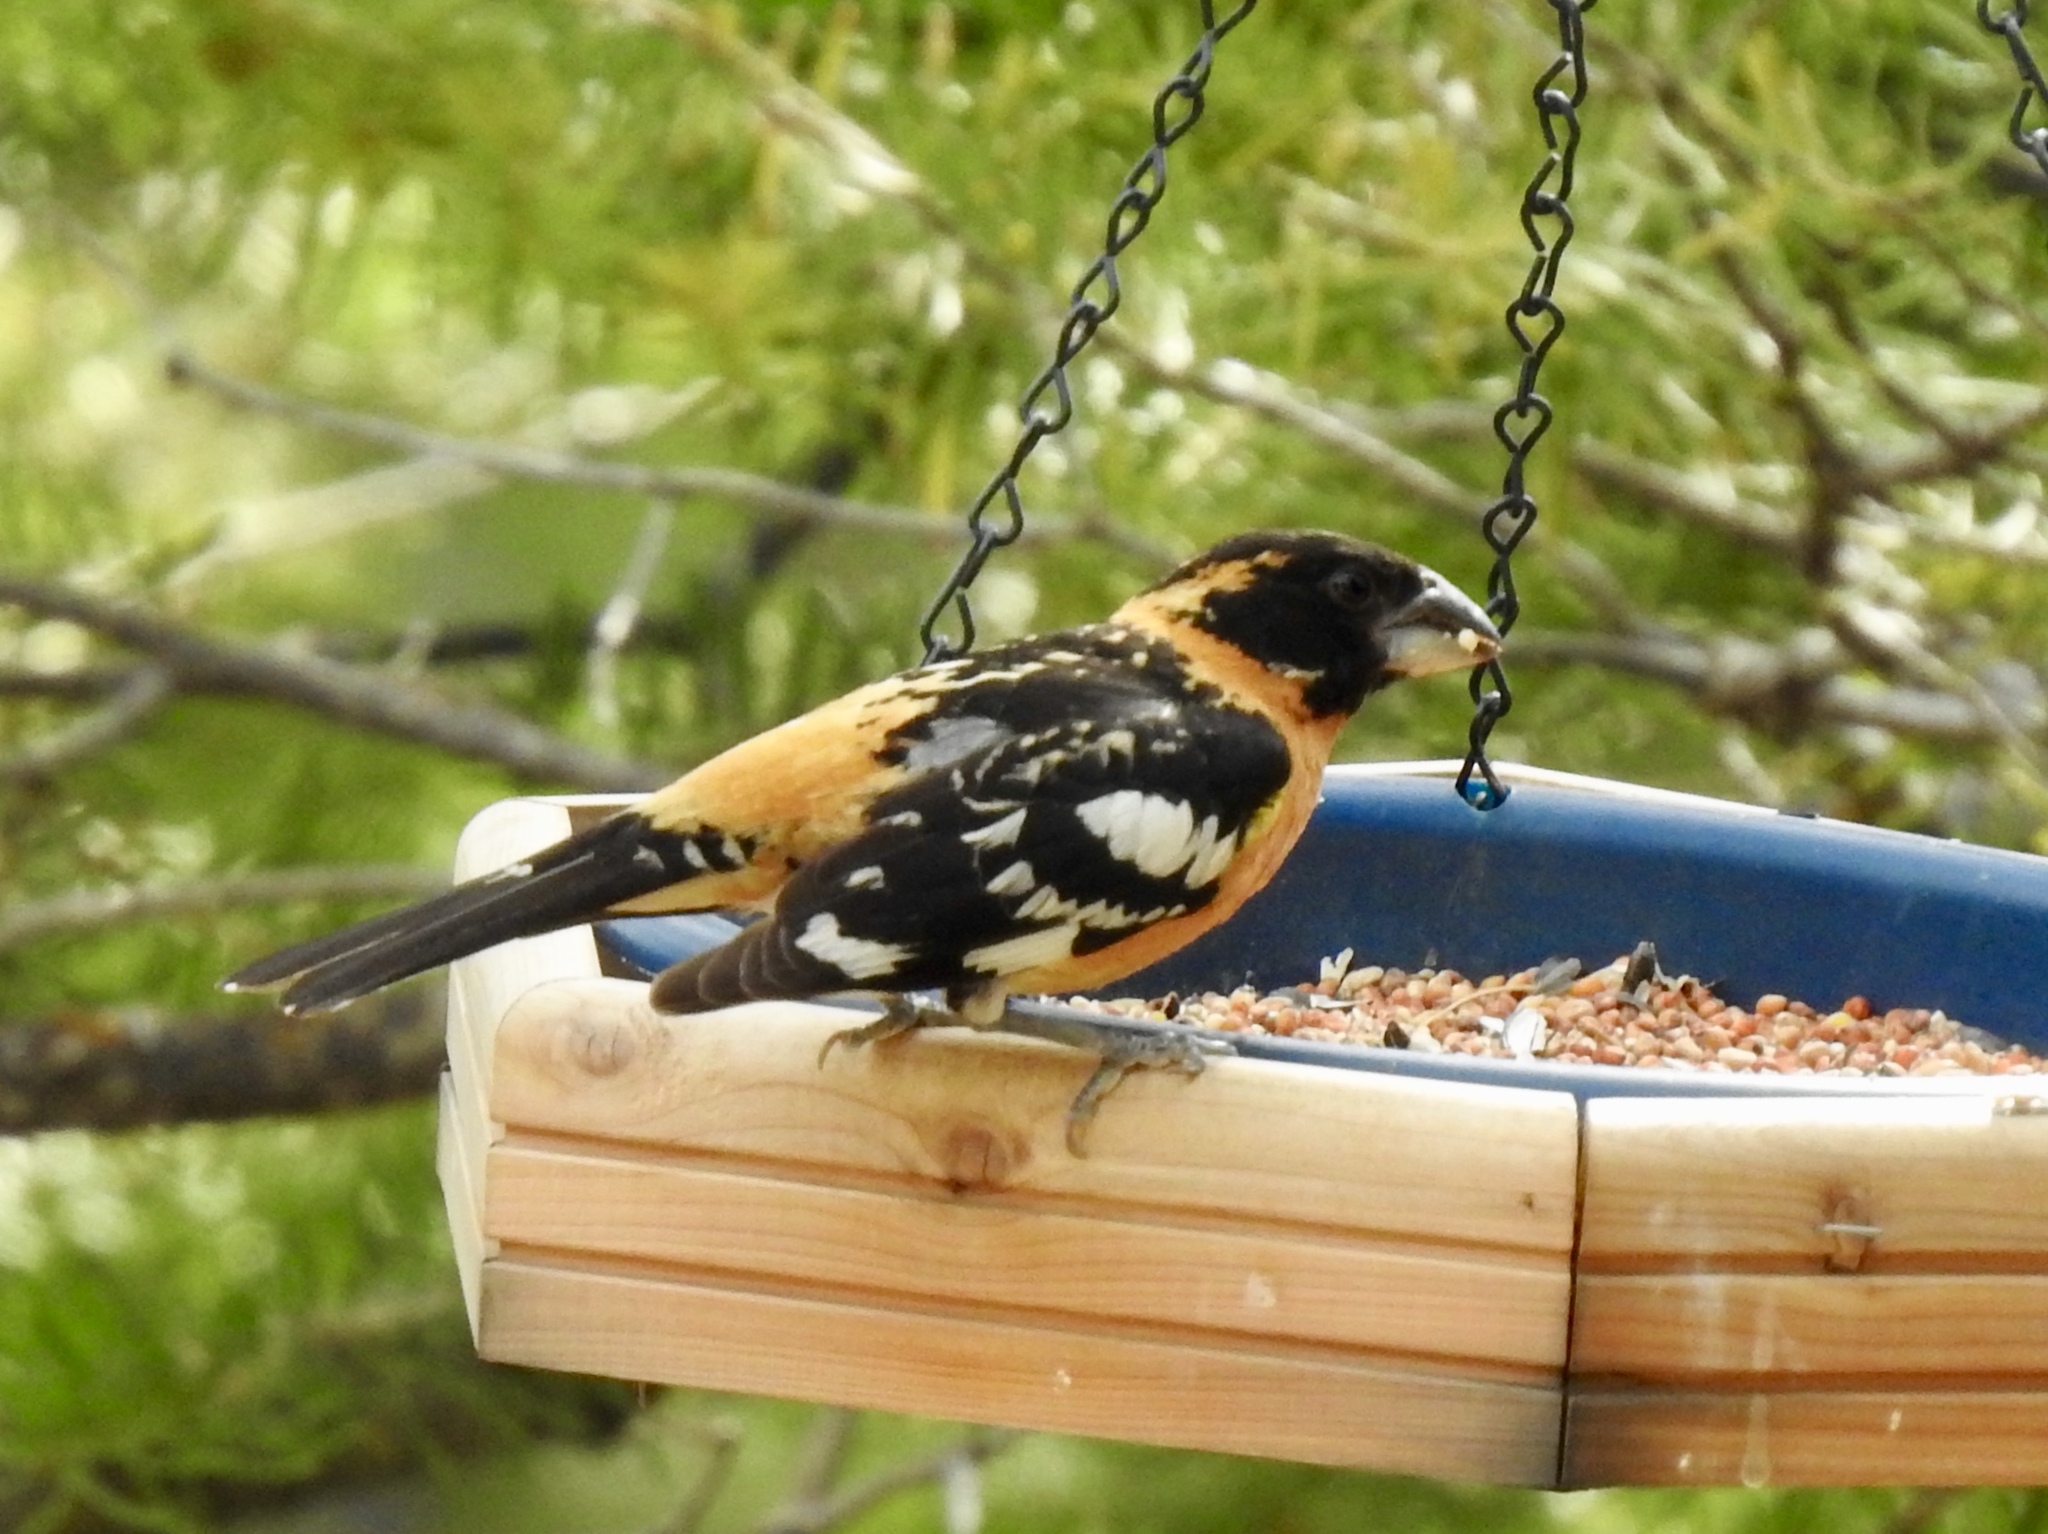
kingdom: Animalia
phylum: Chordata
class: Aves
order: Passeriformes
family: Cardinalidae
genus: Pheucticus
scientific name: Pheucticus melanocephalus
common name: Black-headed grosbeak
